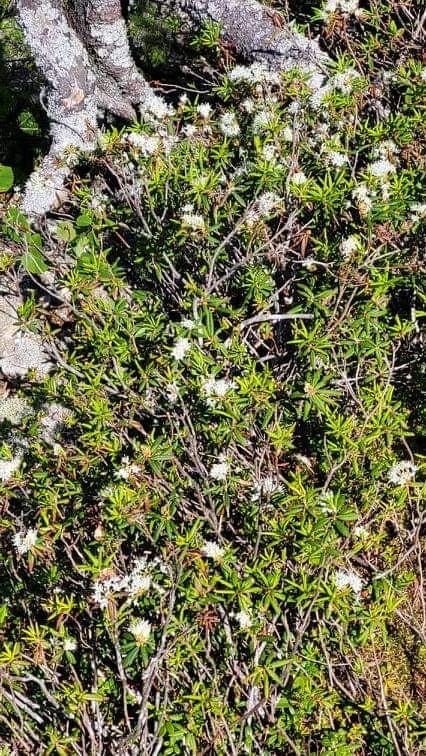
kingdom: Plantae
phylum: Tracheophyta
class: Magnoliopsida
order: Ericales
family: Ericaceae
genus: Rhododendron
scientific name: Rhododendron groenlandicum
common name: Bog labrador tea
